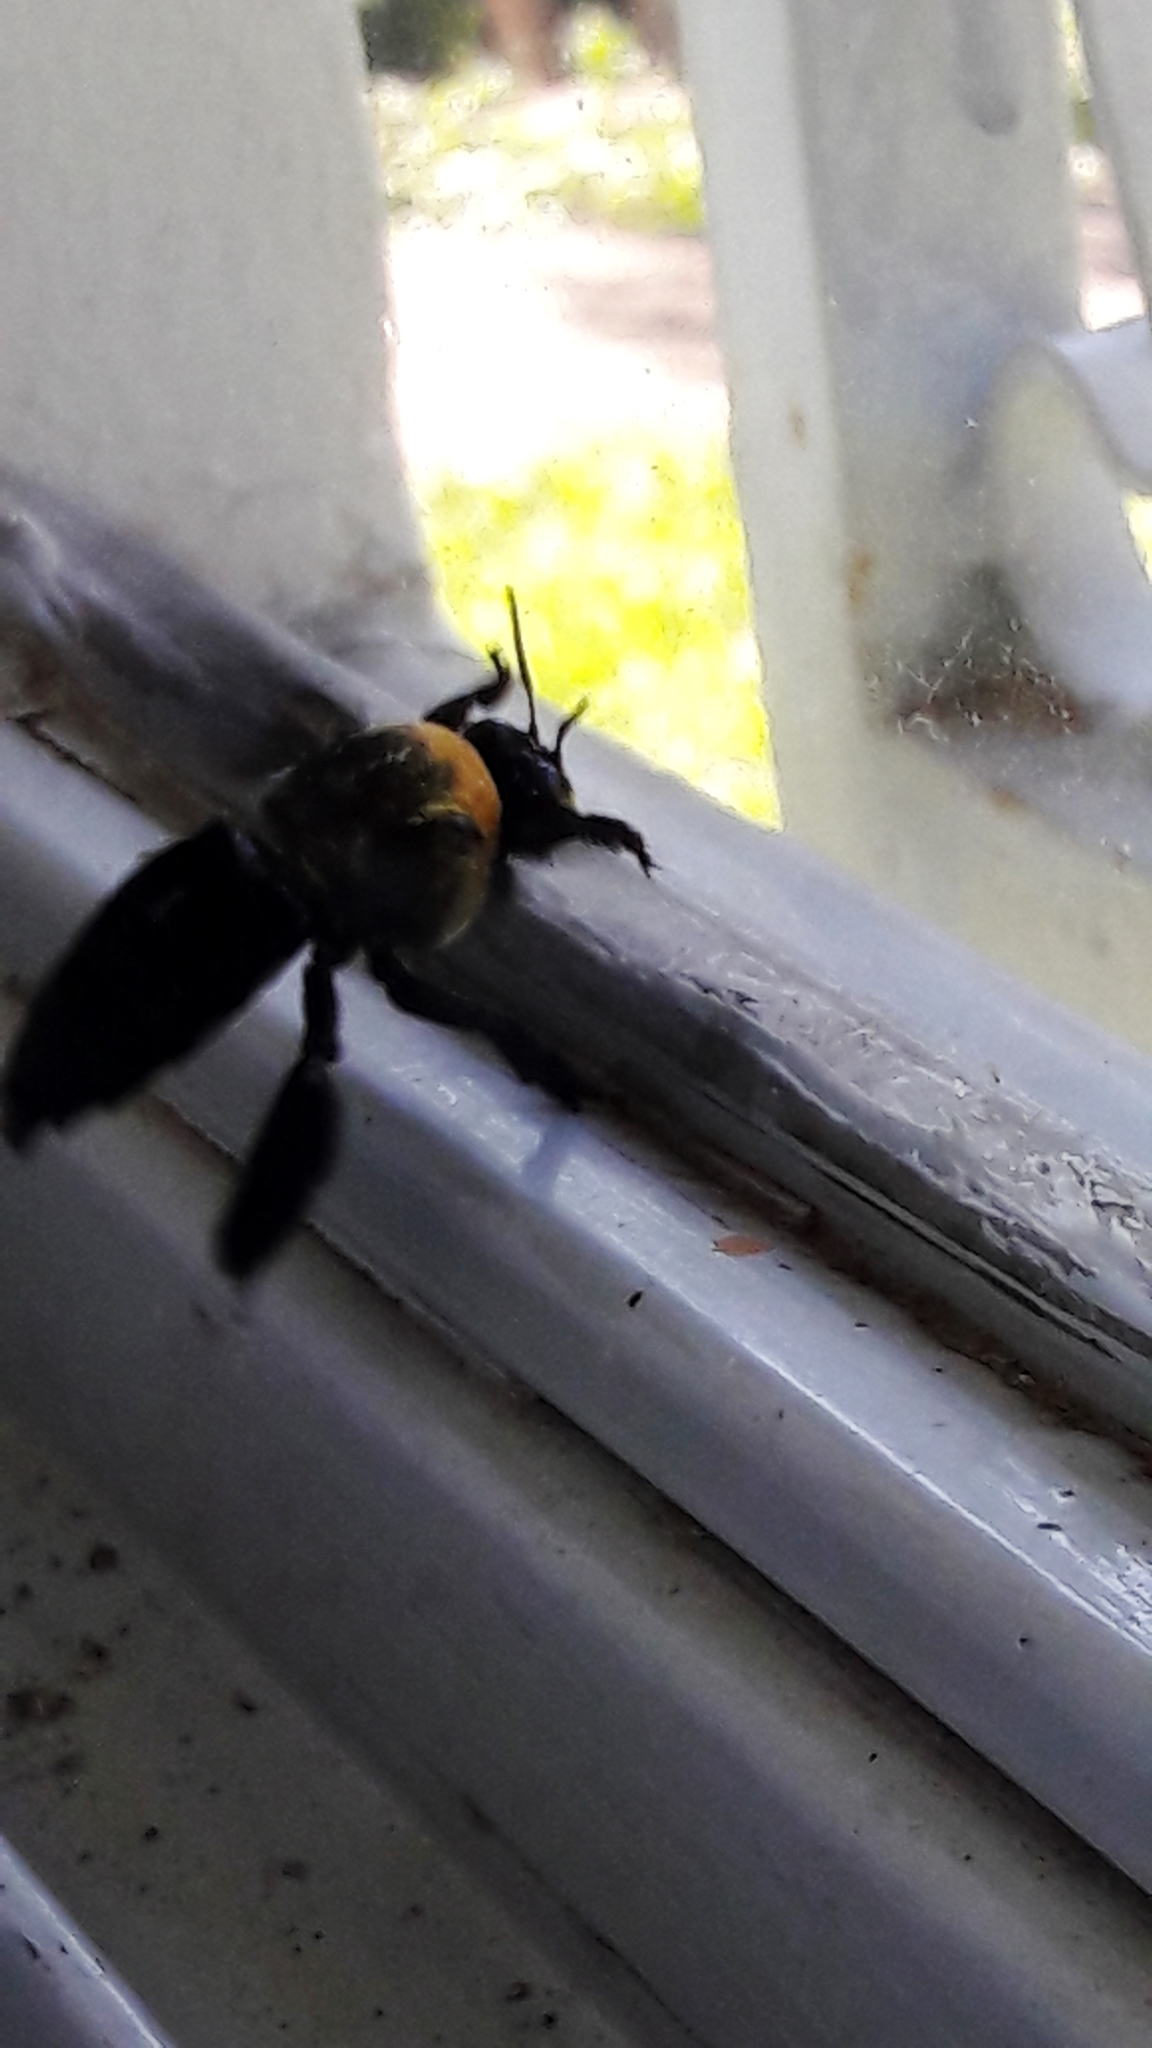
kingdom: Animalia
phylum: Arthropoda
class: Insecta
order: Hymenoptera
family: Apidae
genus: Centris
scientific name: Centris scopipes
